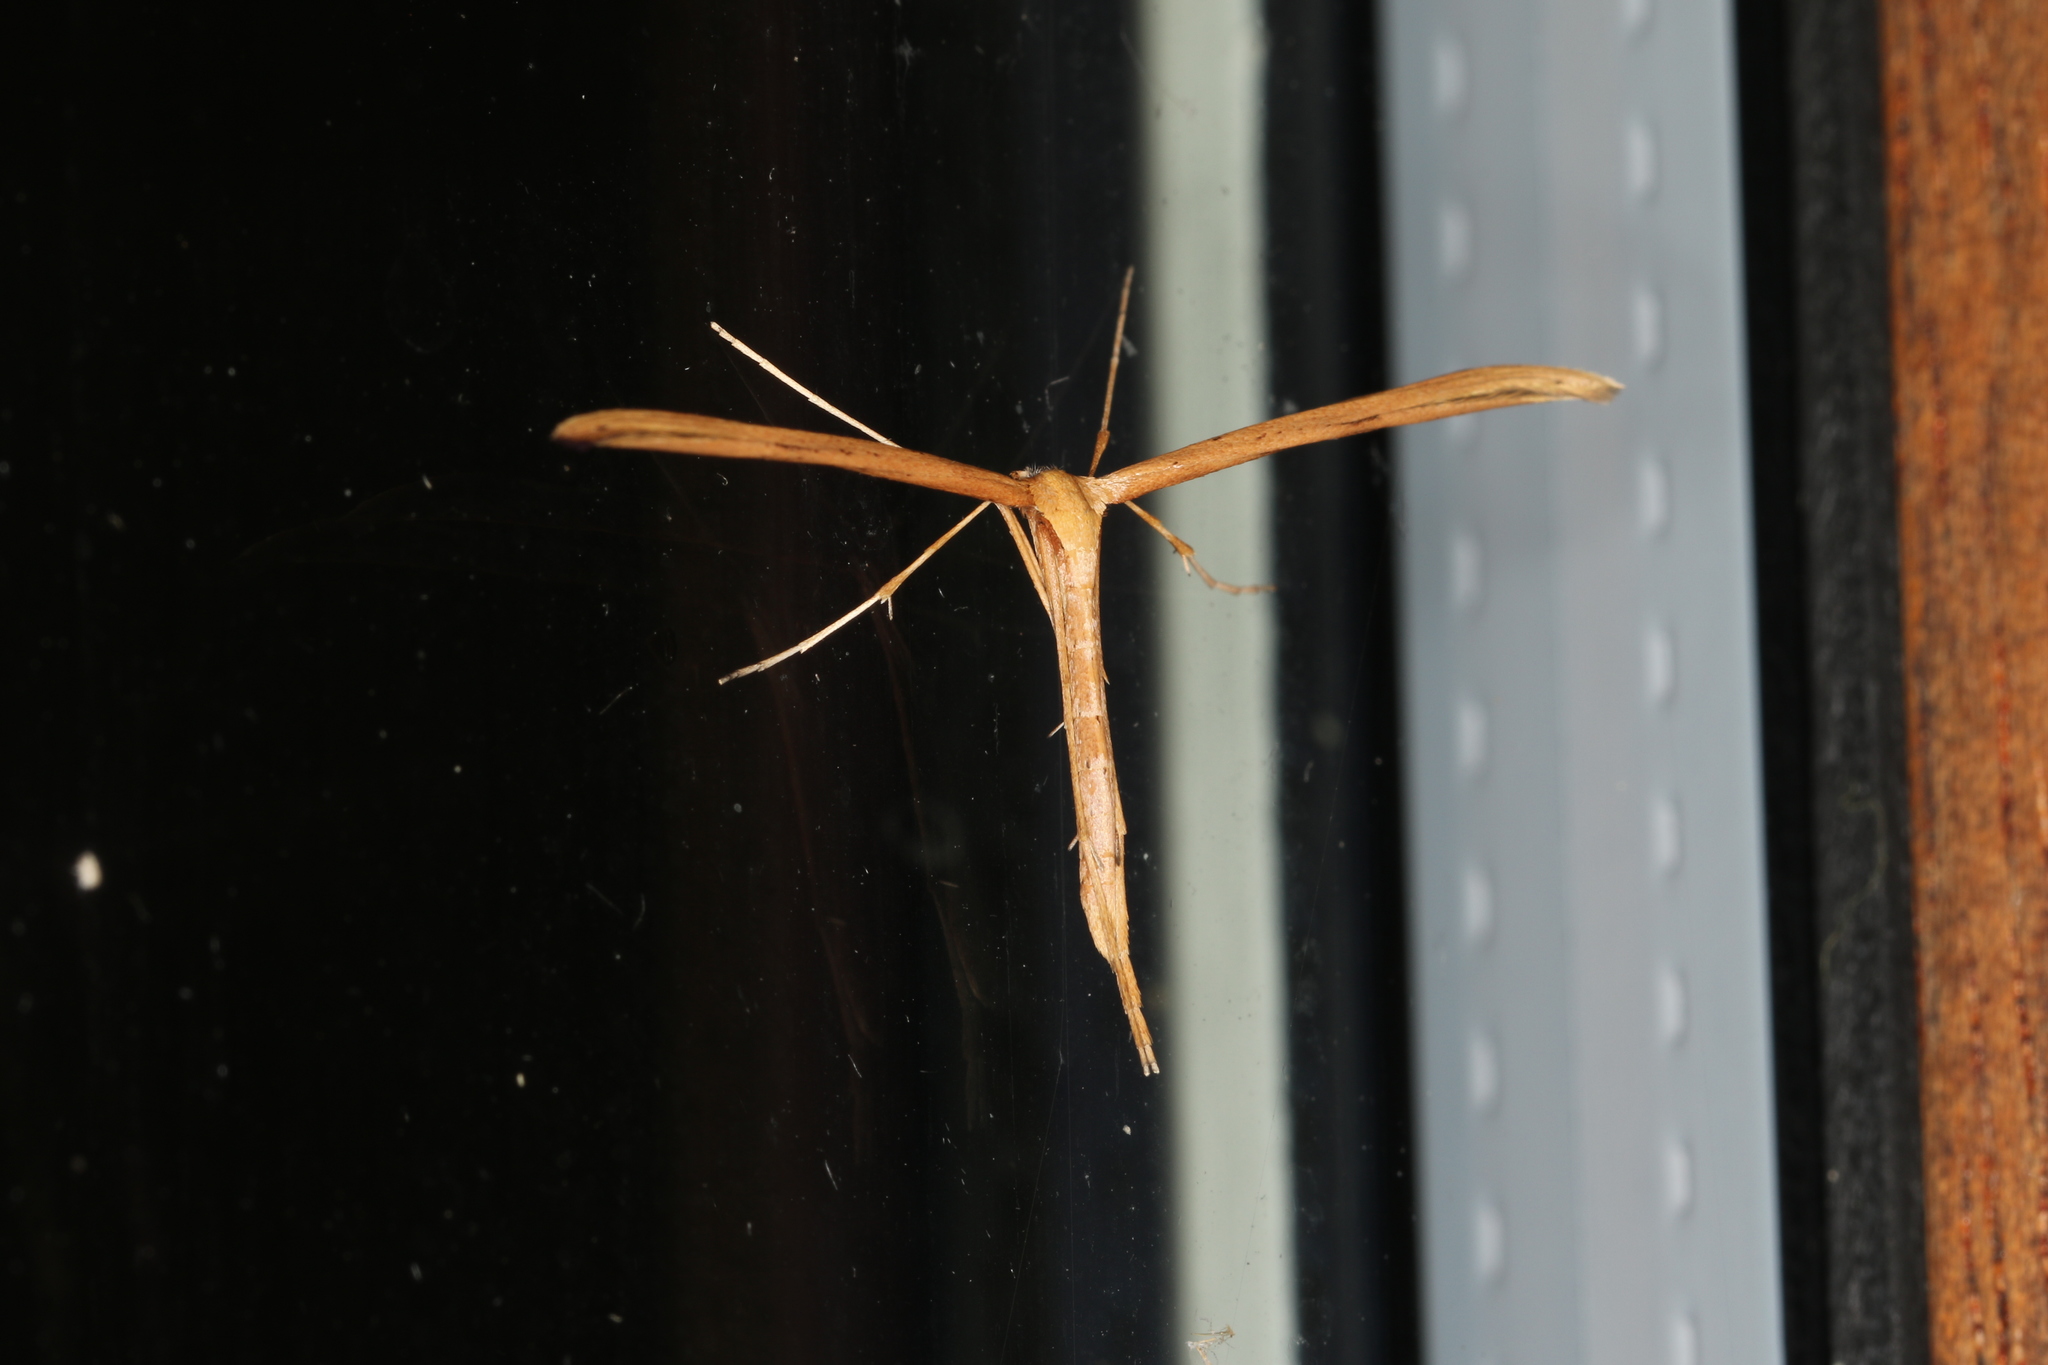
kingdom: Animalia
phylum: Arthropoda
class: Insecta
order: Lepidoptera
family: Pterophoridae
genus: Emmelina
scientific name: Emmelina monodactyla
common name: Common plume
